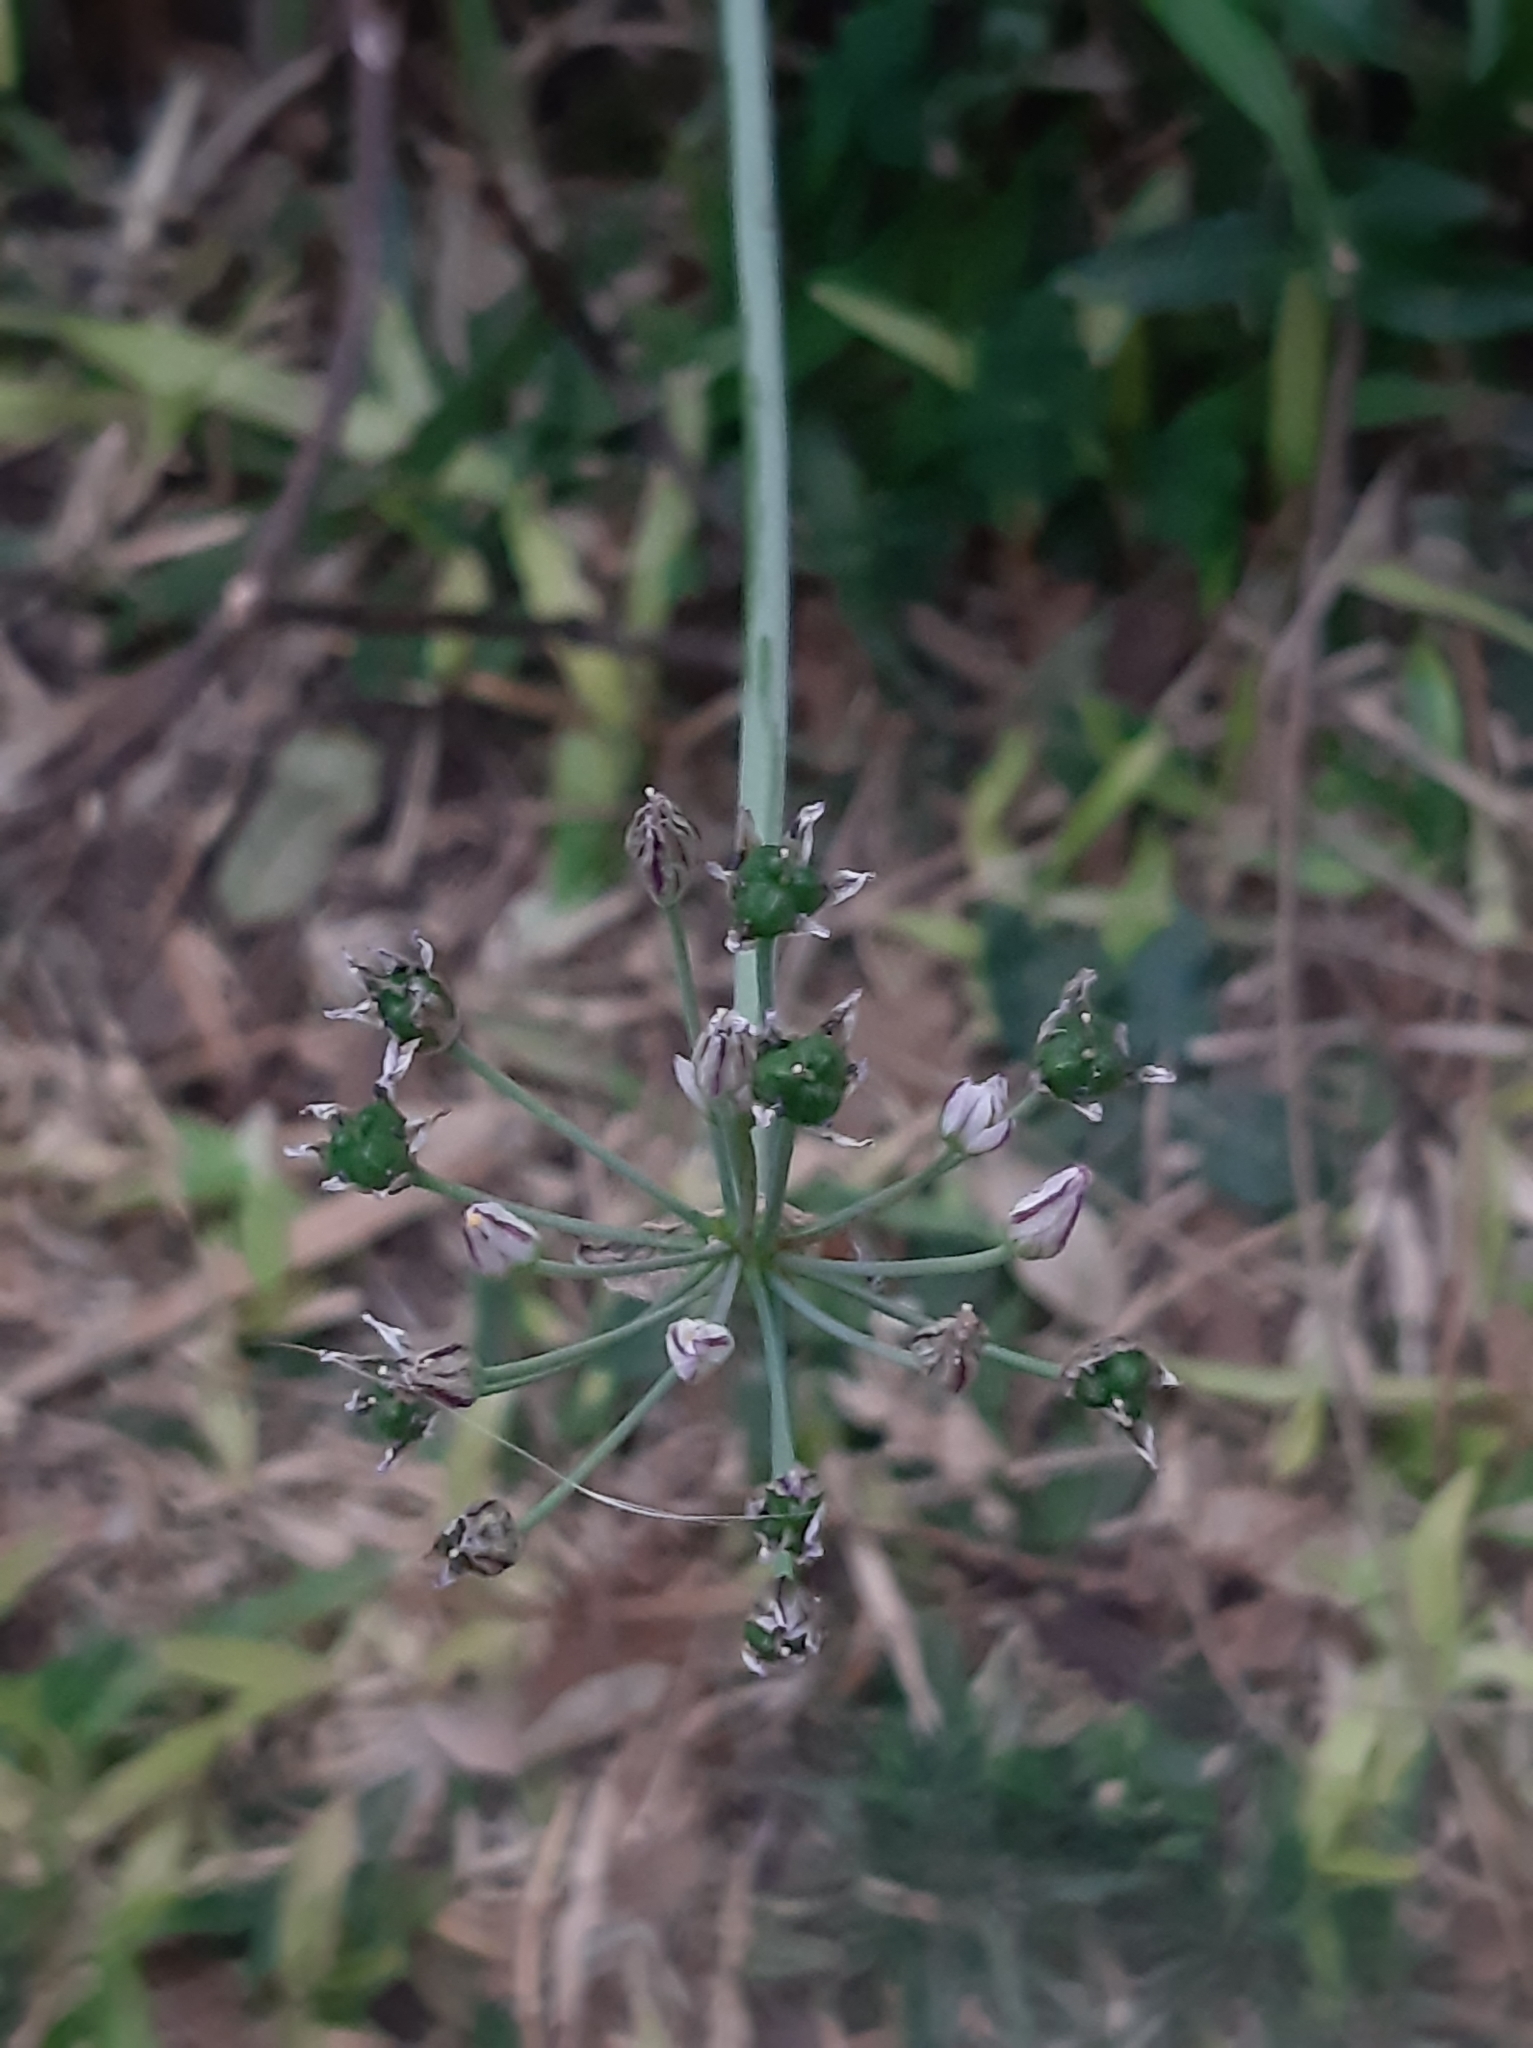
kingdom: Plantae
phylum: Tracheophyta
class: Liliopsida
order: Asparagales
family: Amaryllidaceae
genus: Nothoscordum
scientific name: Nothoscordum gracile
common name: Slender false garlic
